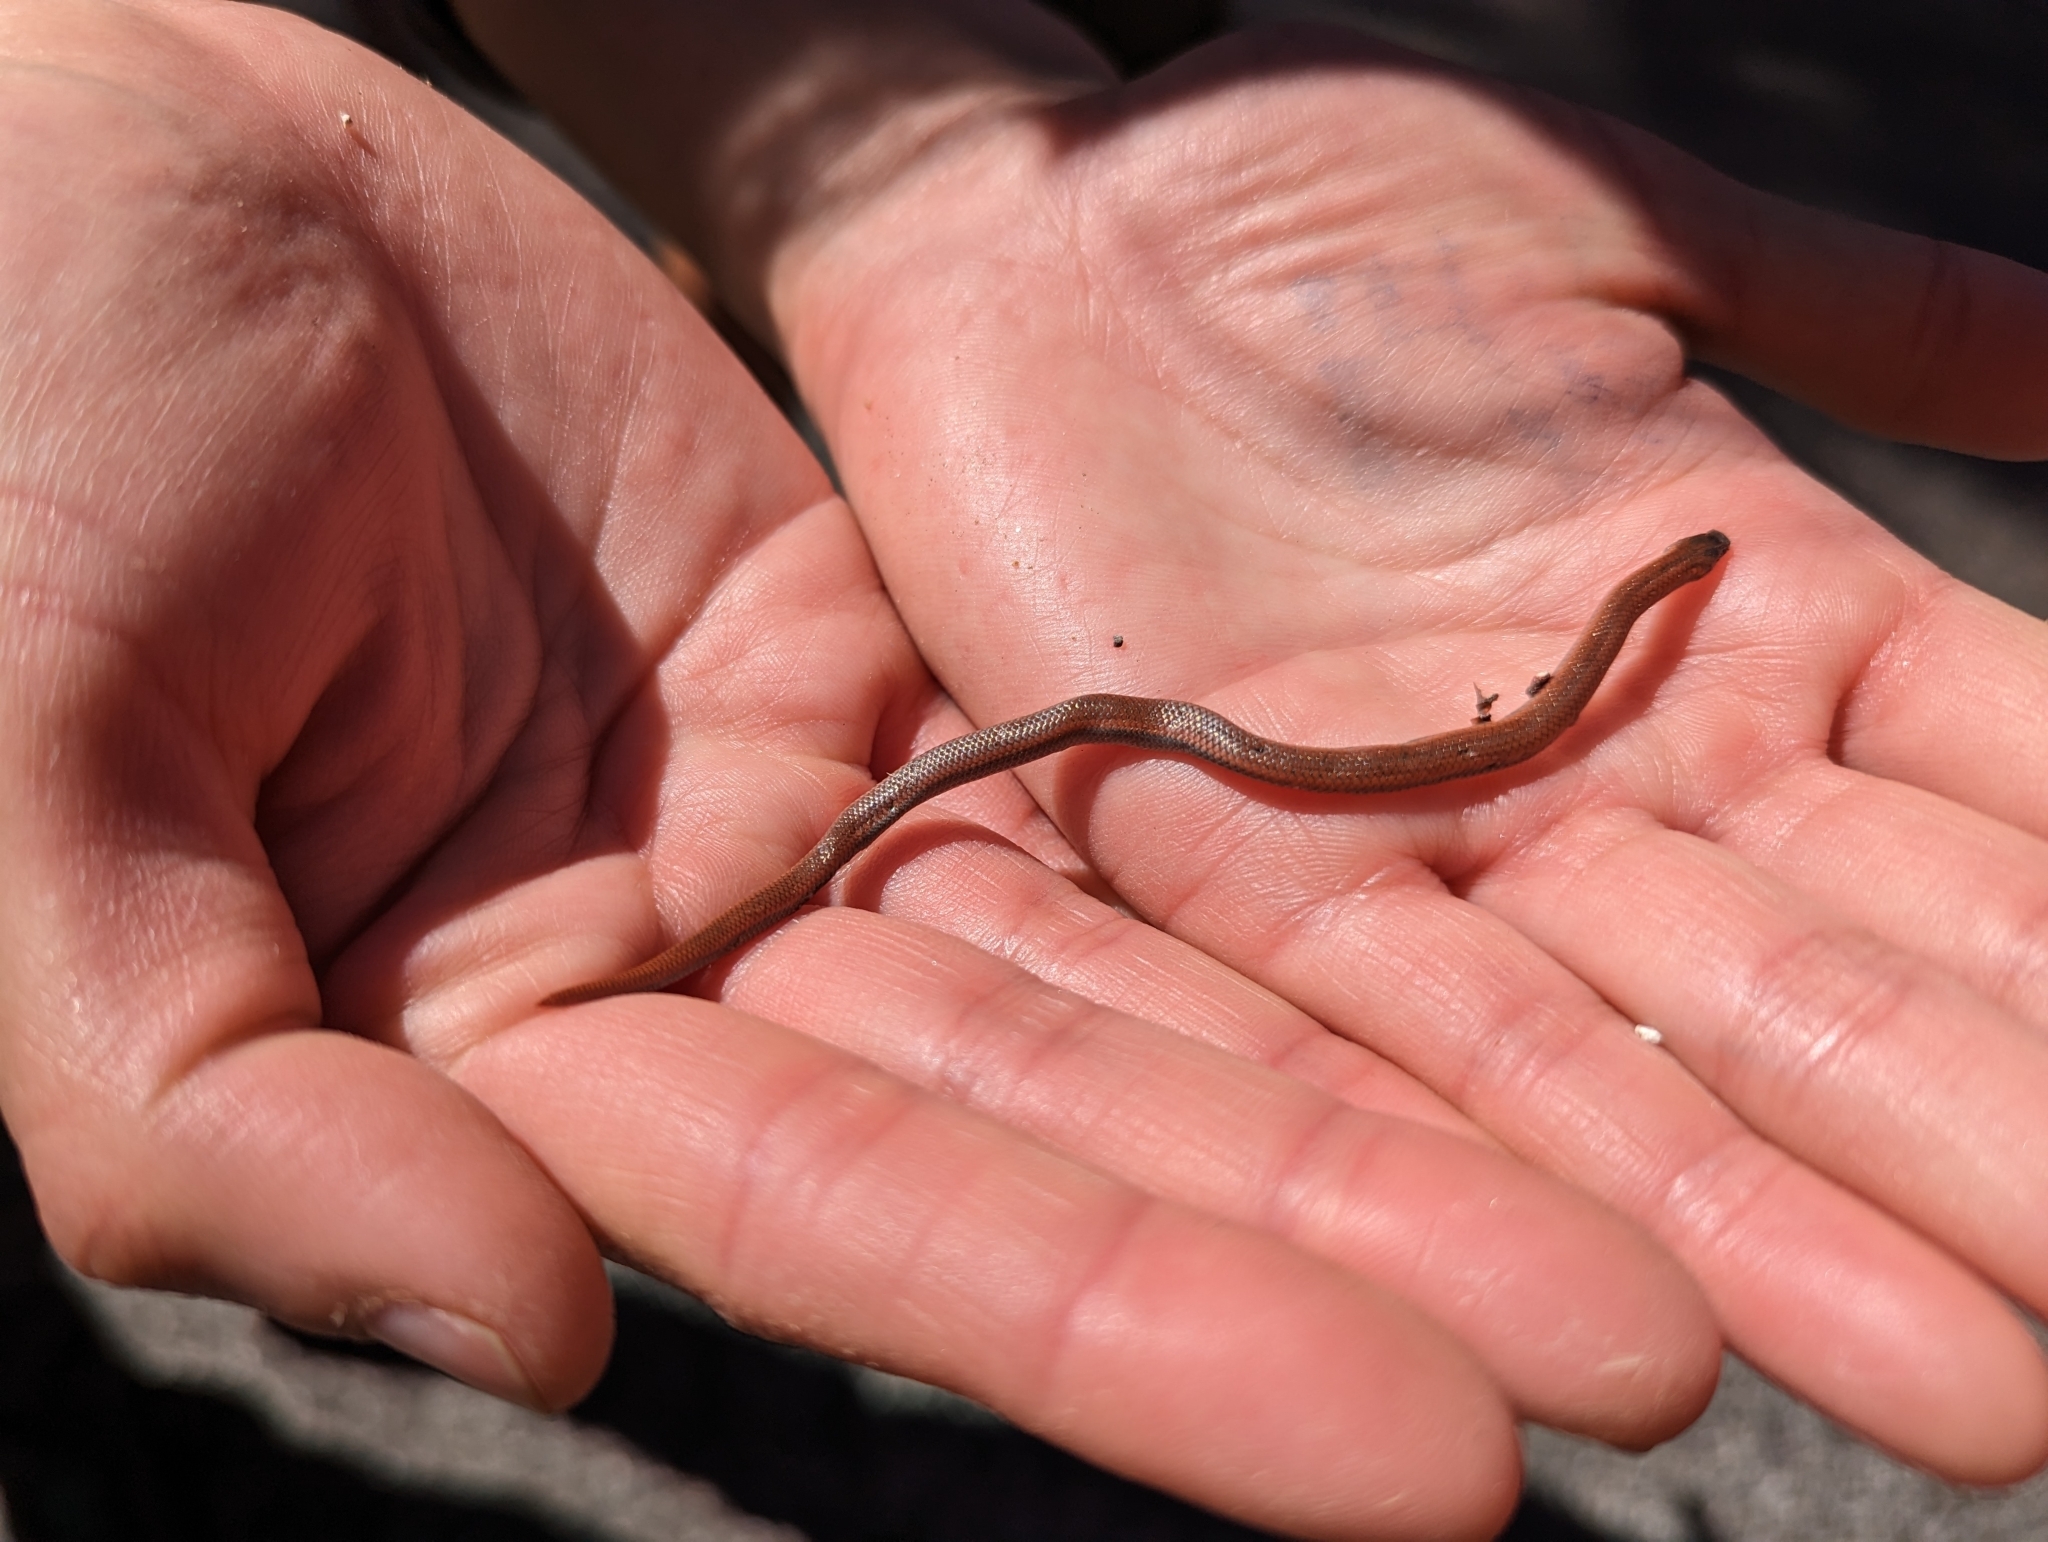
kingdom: Animalia
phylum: Chordata
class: Squamata
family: Colubridae
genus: Contia
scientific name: Contia tenuis
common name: Sharptail snake
